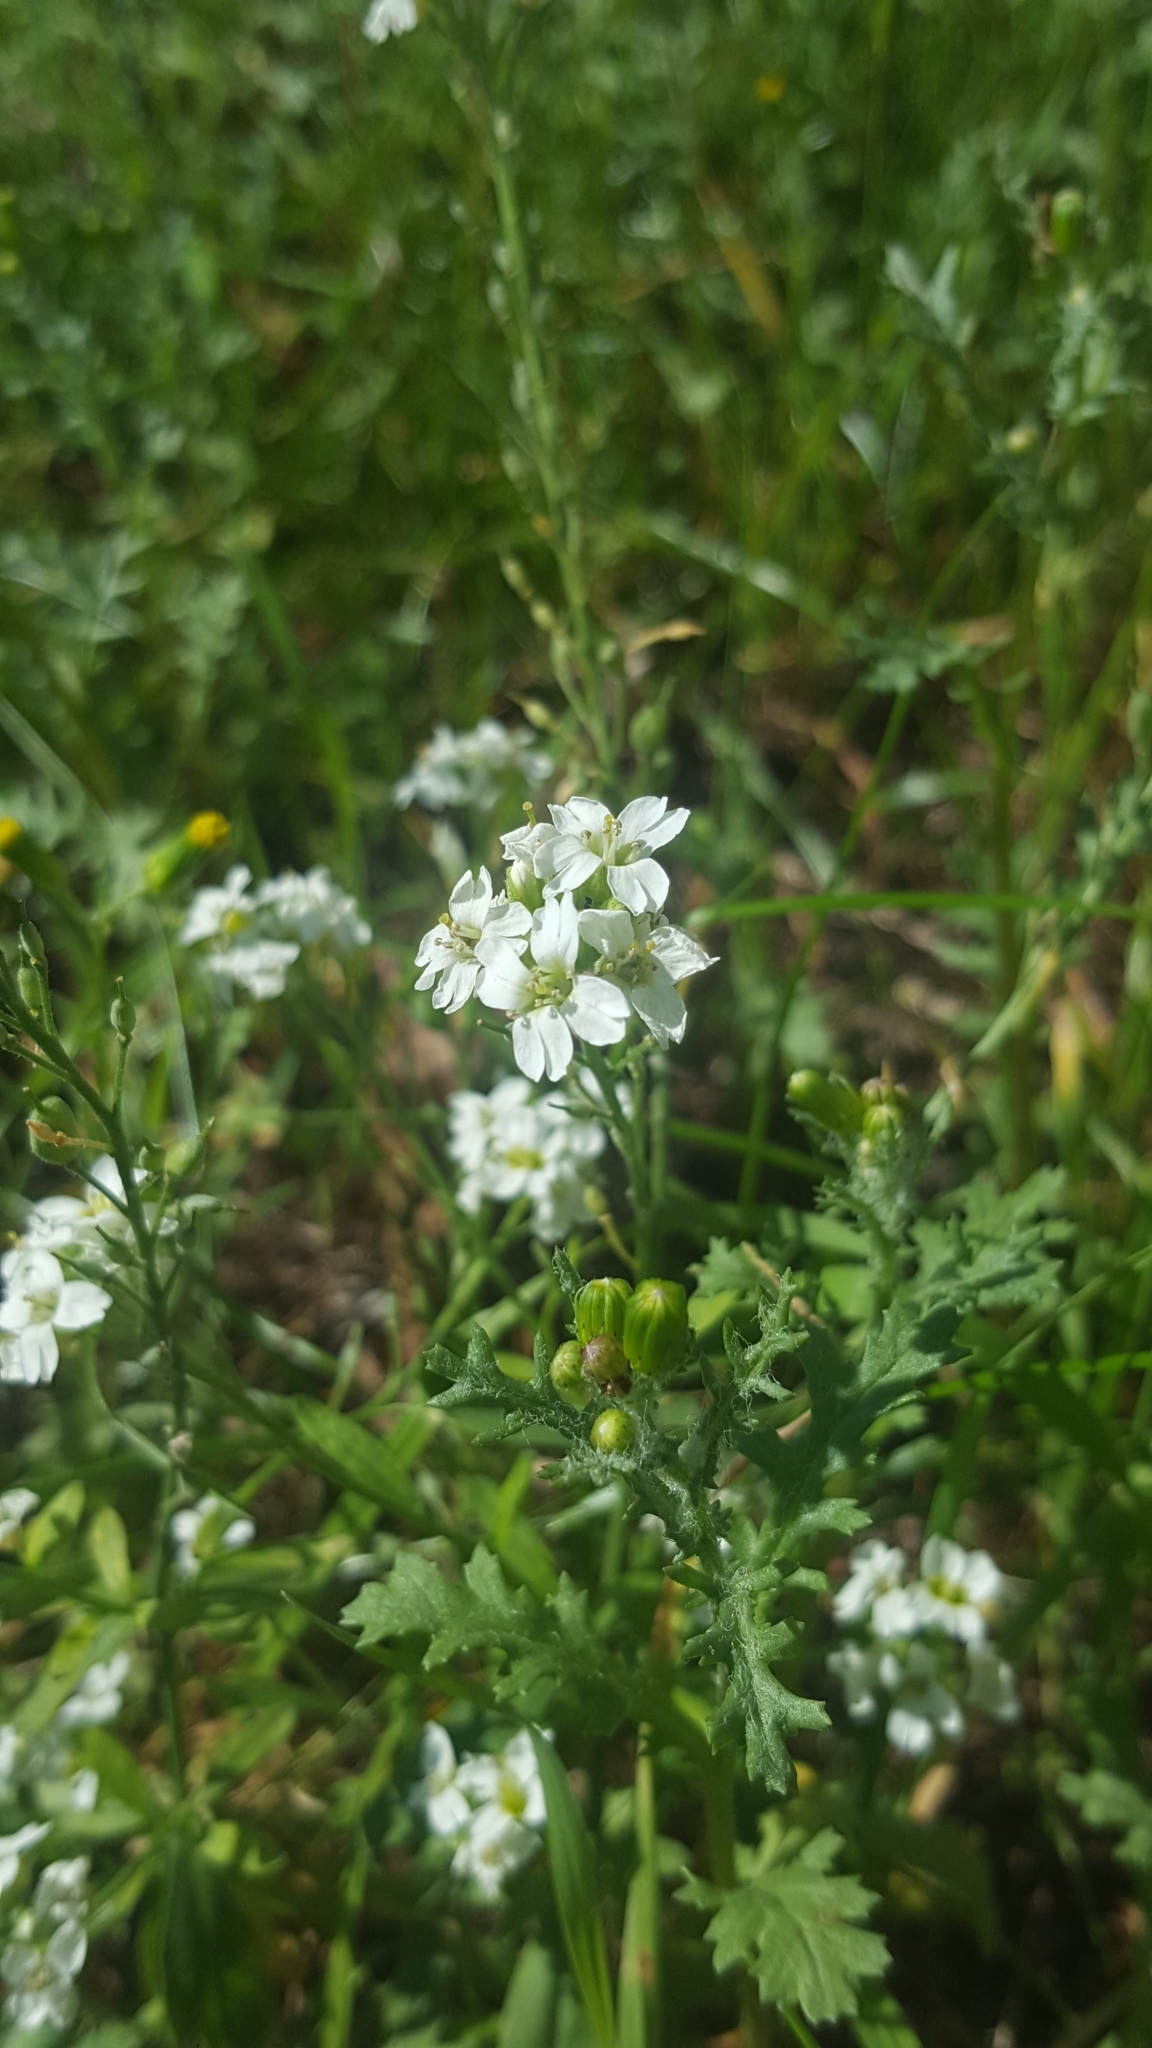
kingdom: Plantae
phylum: Tracheophyta
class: Magnoliopsida
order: Brassicales
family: Brassicaceae
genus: Berteroa
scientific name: Berteroa incana
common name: Hoary alison
